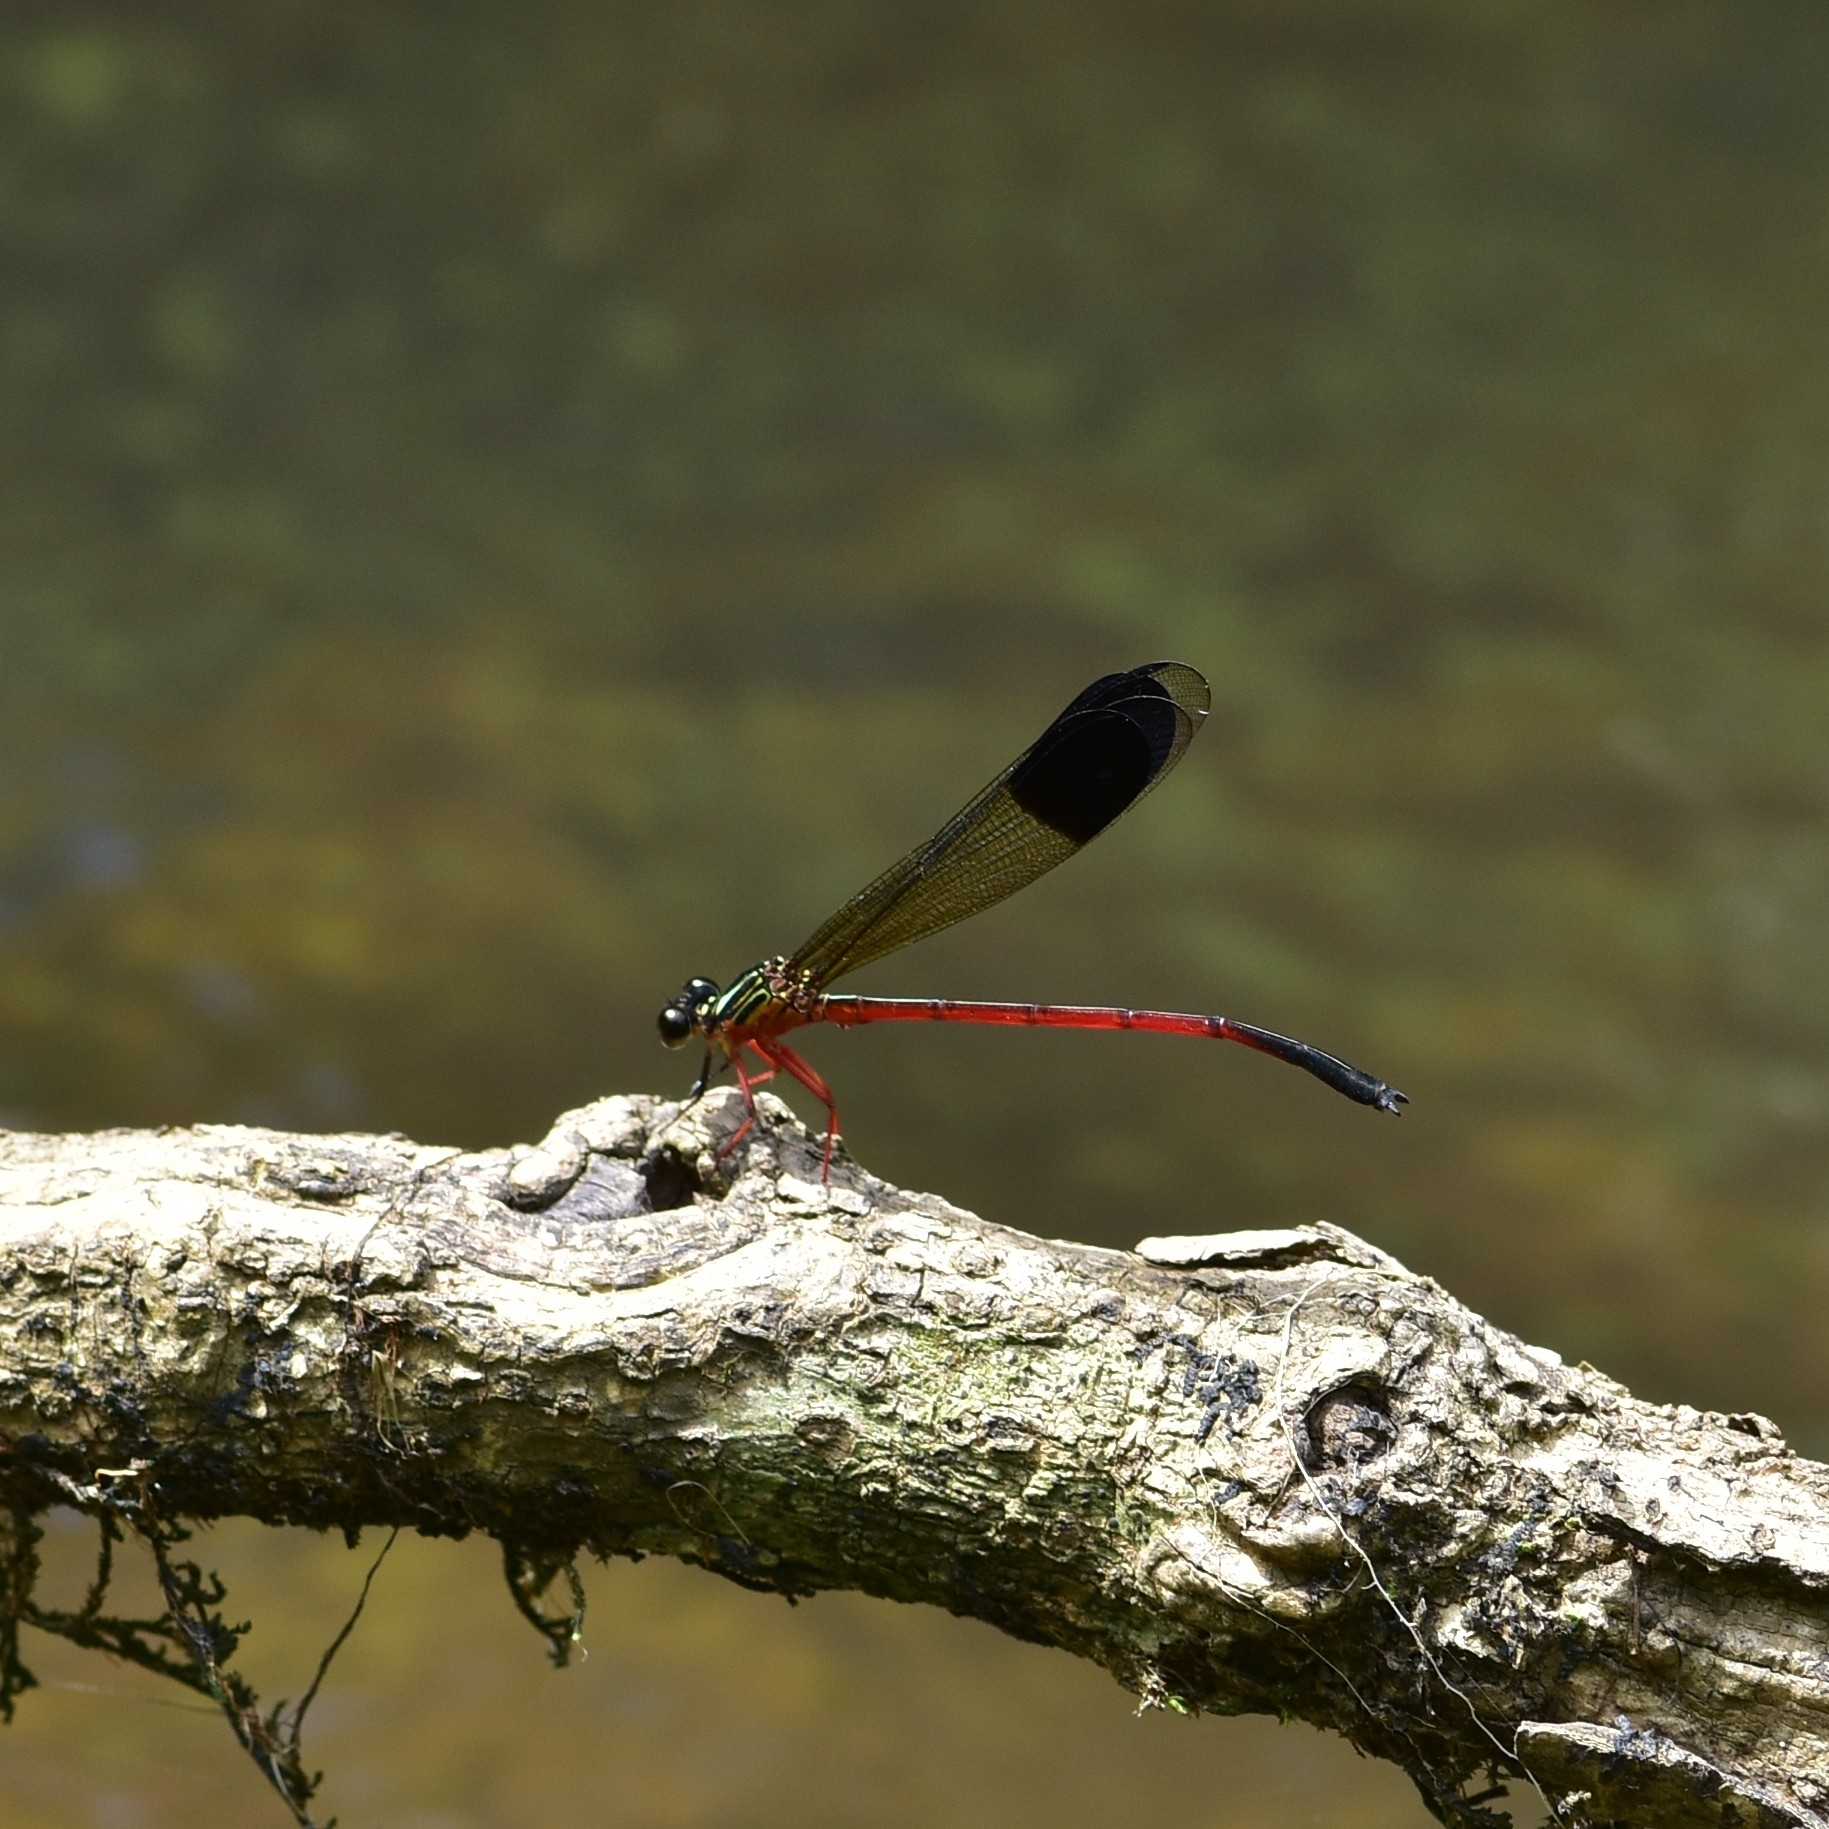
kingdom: Animalia
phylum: Arthropoda
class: Insecta
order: Odonata
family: Euphaeidae
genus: Euphaea
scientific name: Euphaea fraseri
